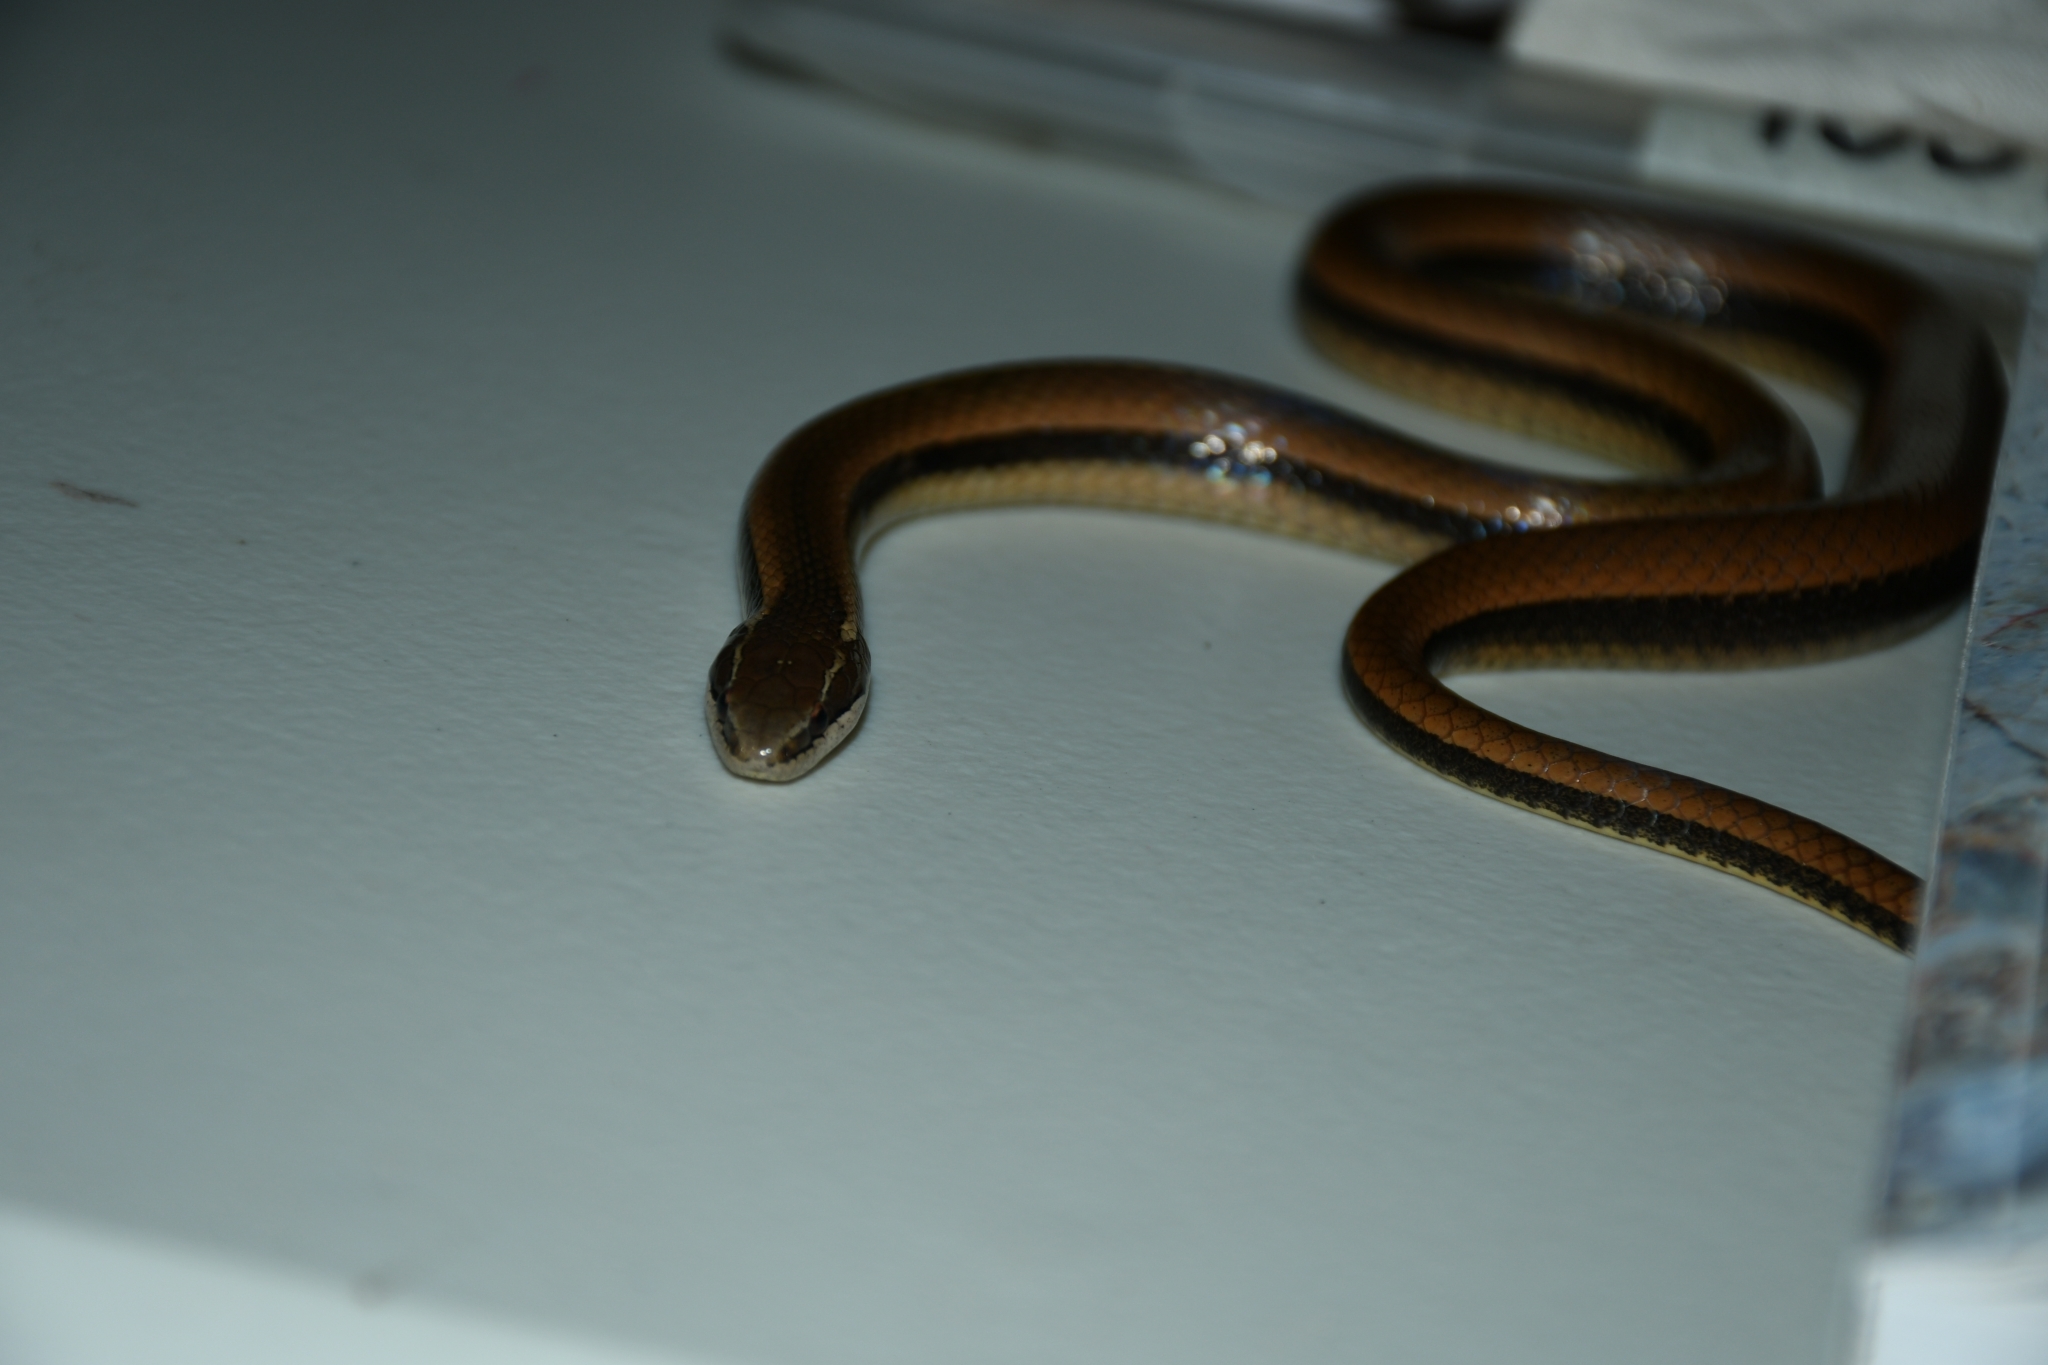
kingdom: Animalia
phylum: Chordata
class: Squamata
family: Colubridae
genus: Coniophanes
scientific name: Coniophanes imperialis
